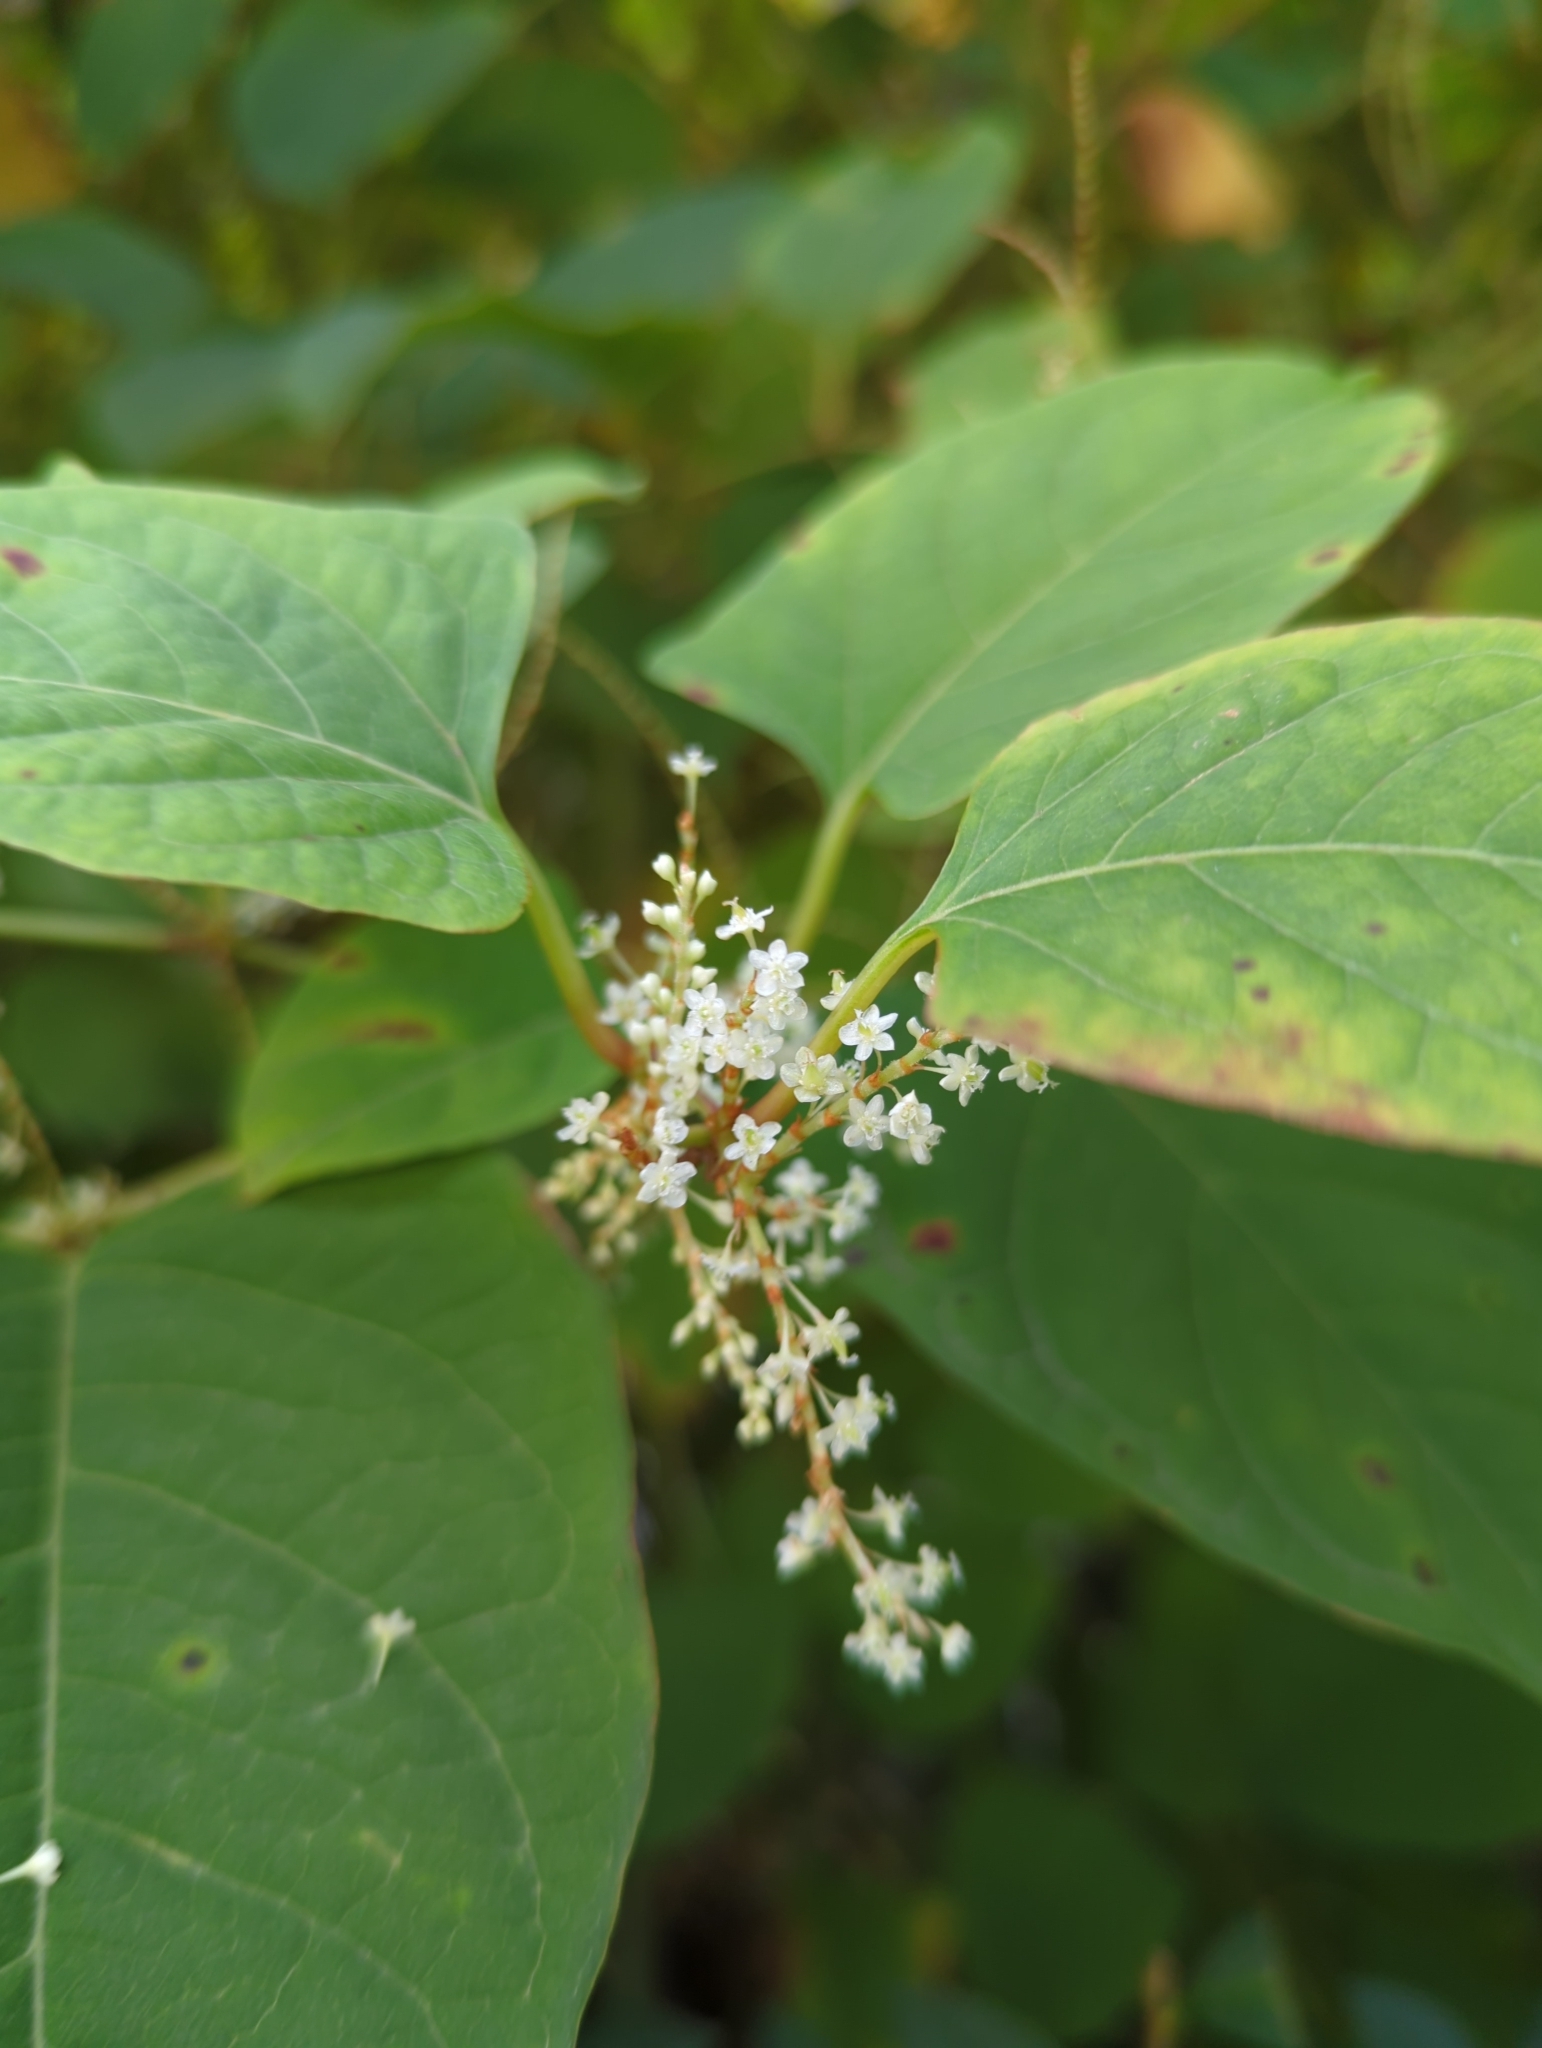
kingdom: Plantae
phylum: Tracheophyta
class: Magnoliopsida
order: Caryophyllales
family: Polygonaceae
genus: Reynoutria
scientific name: Reynoutria japonica
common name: Japanese knotweed
